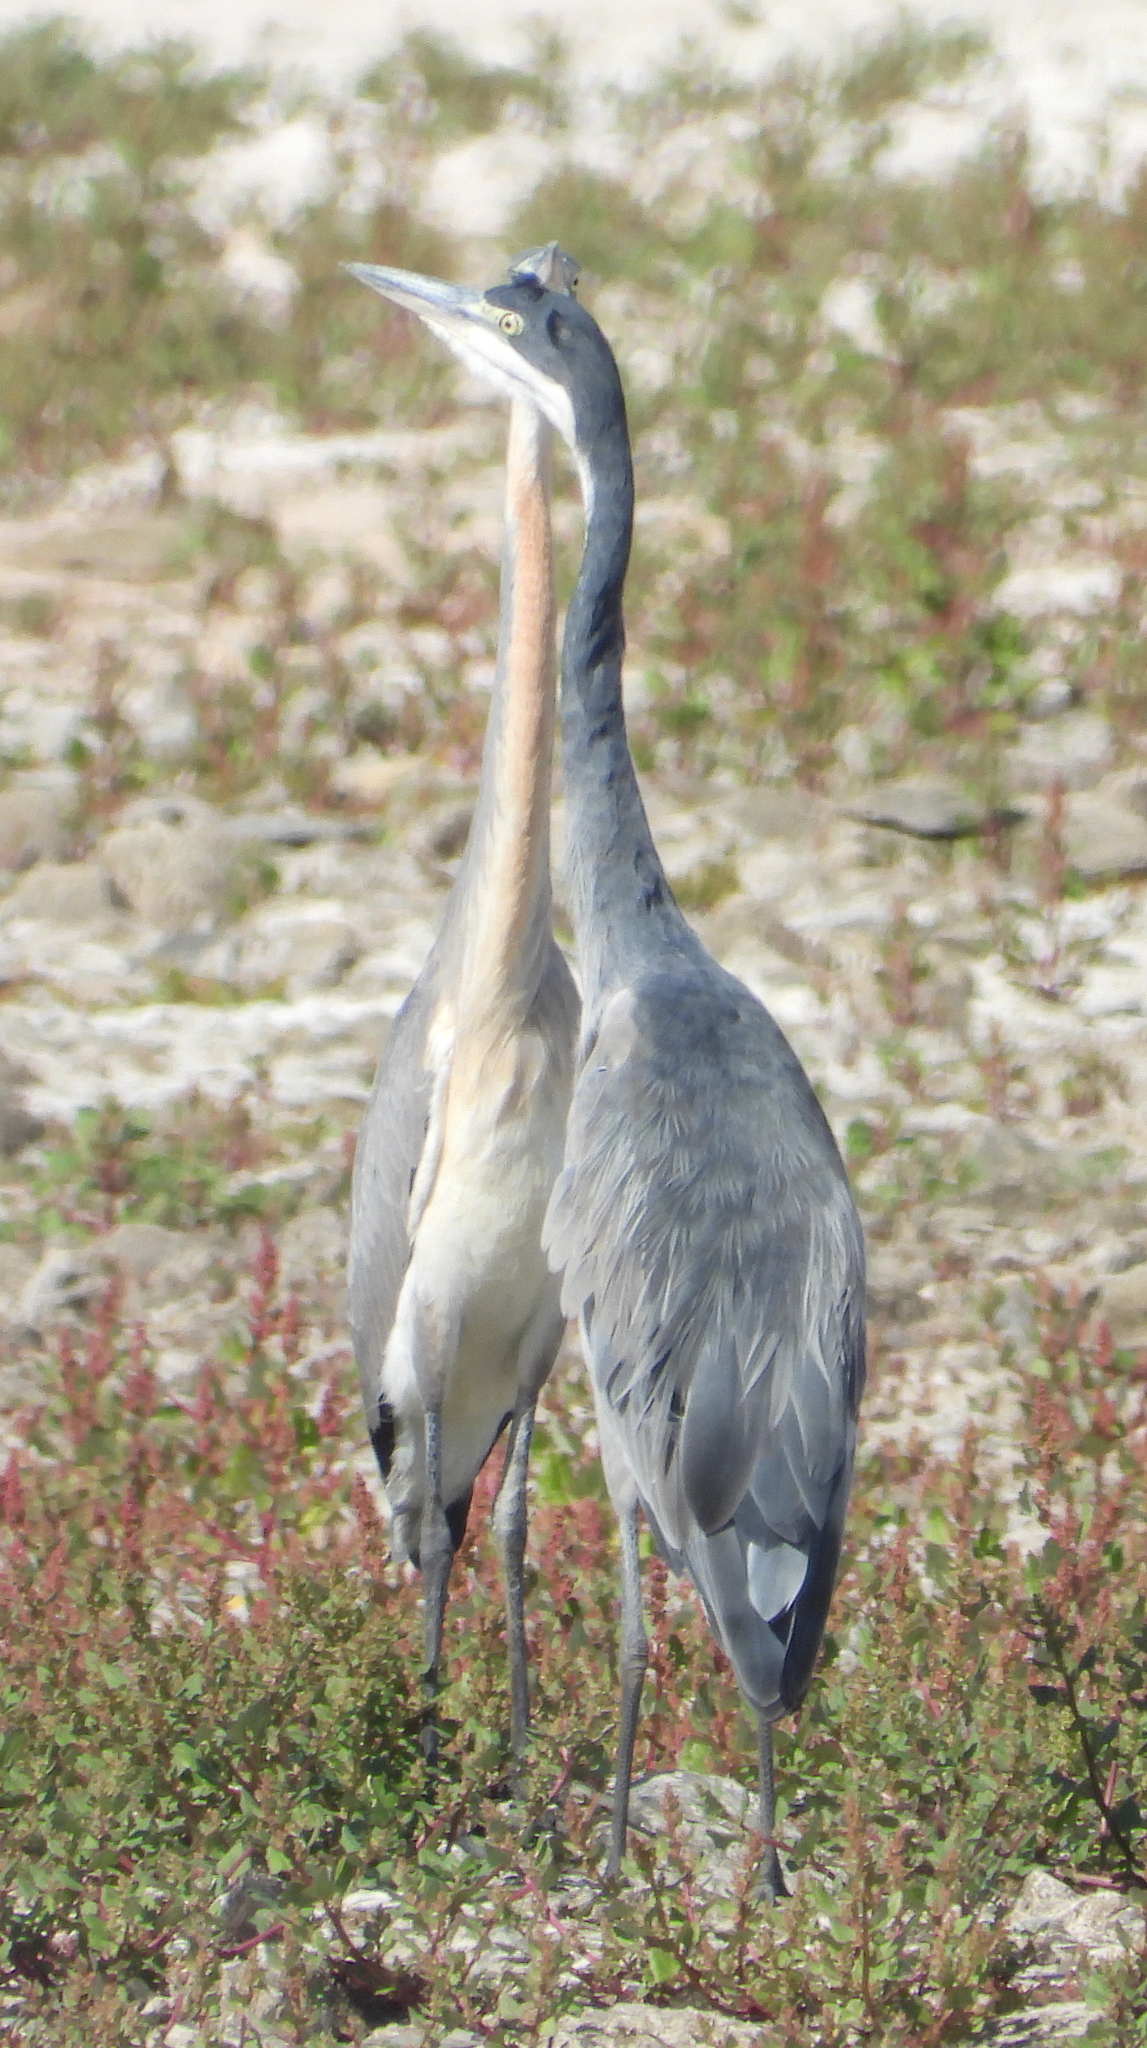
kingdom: Animalia
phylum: Chordata
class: Aves
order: Pelecaniformes
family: Ardeidae
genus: Ardea
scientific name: Ardea melanocephala
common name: Black-headed heron
